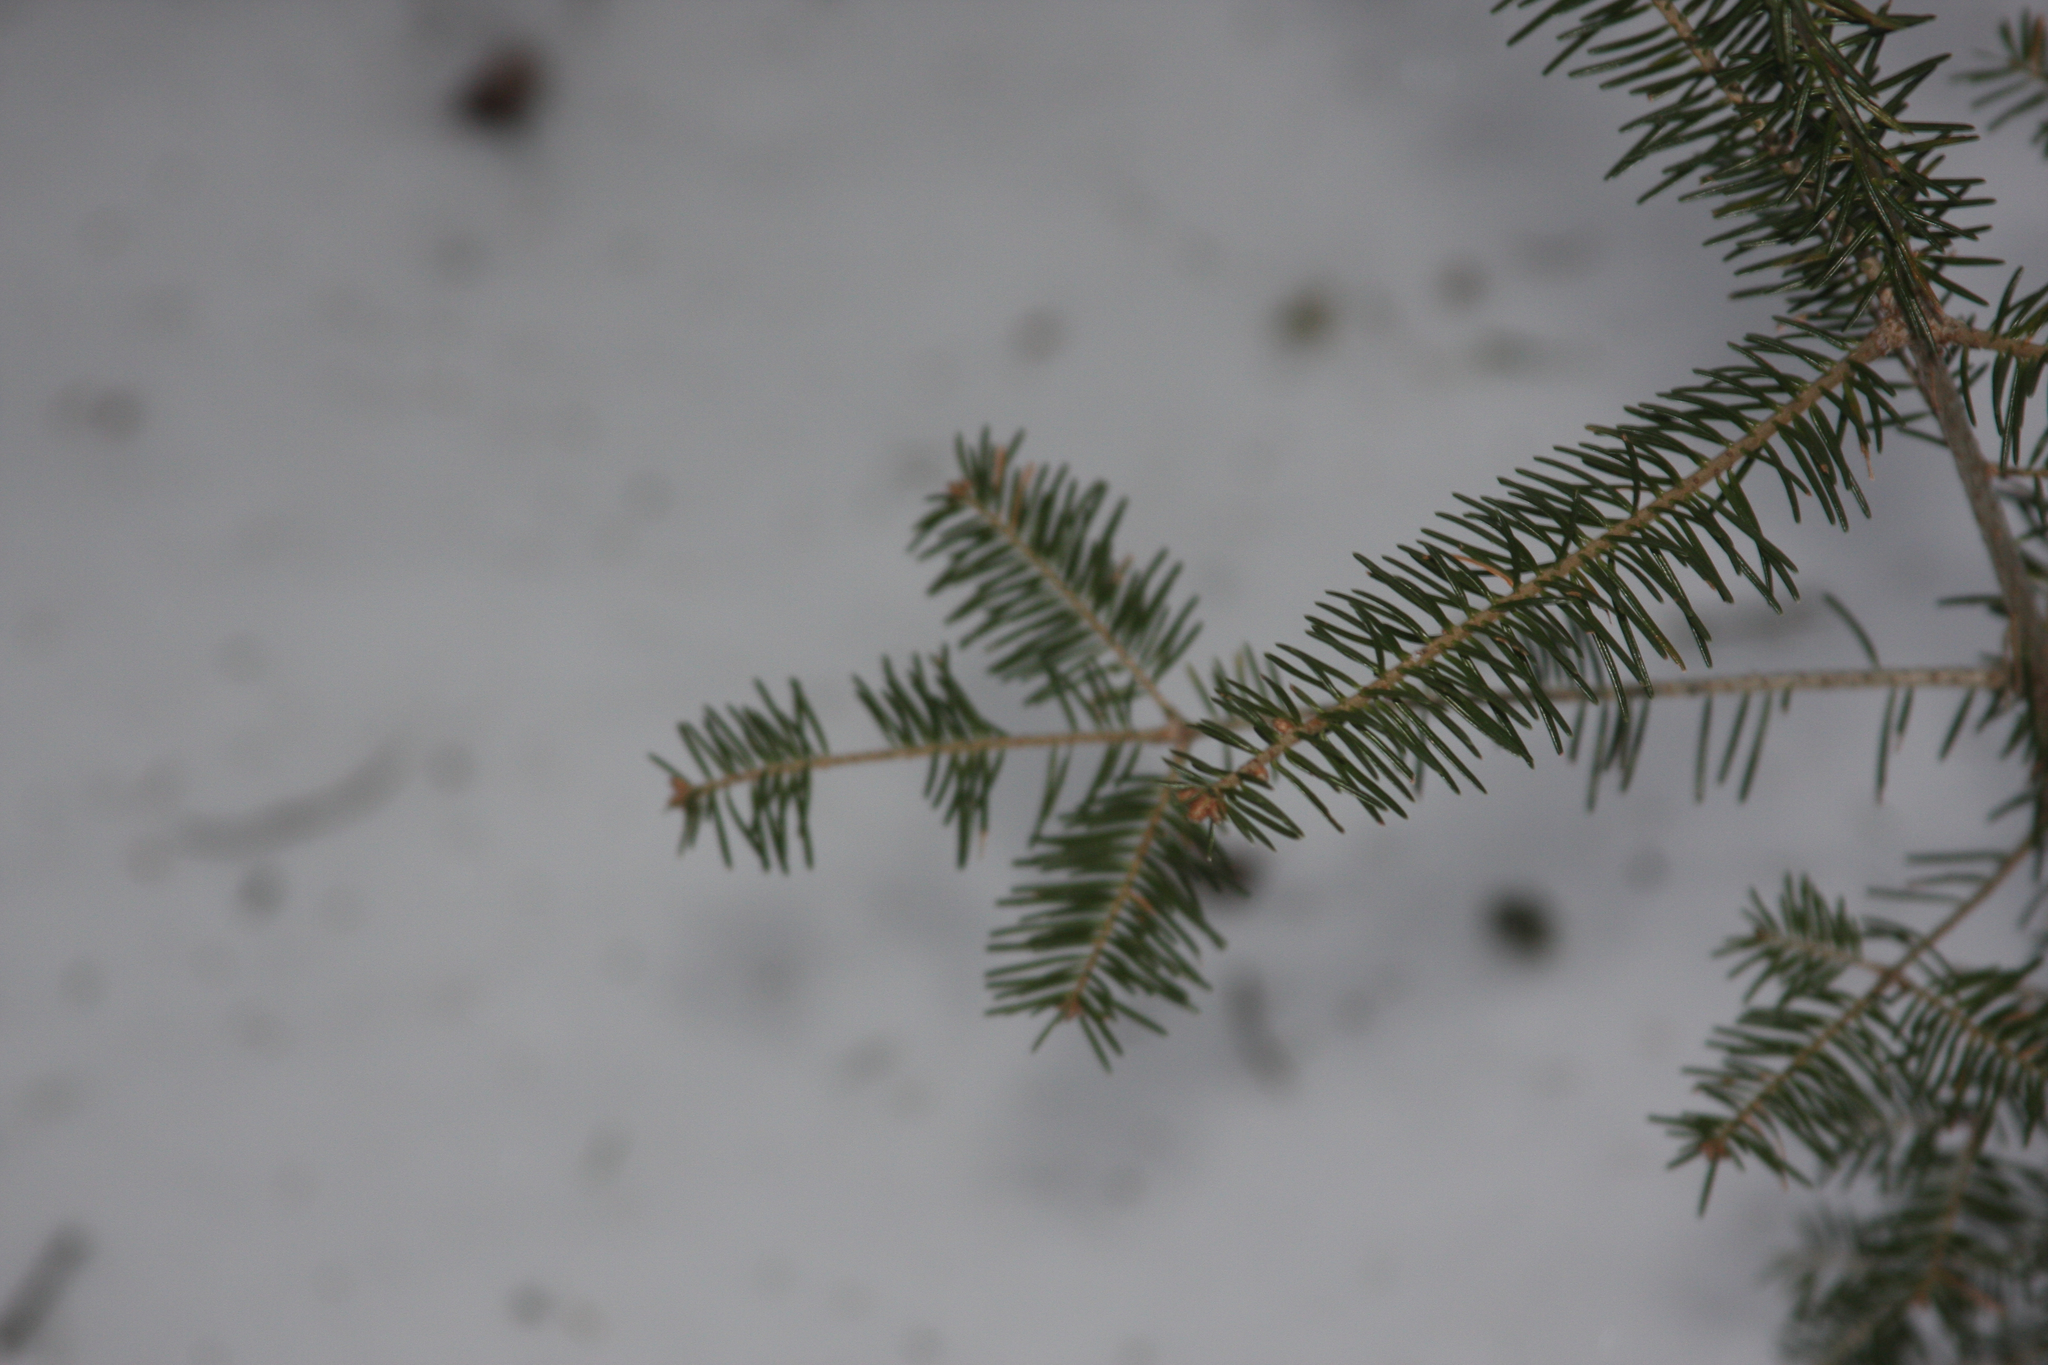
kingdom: Plantae
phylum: Tracheophyta
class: Pinopsida
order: Pinales
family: Pinaceae
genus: Abies
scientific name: Abies balsamea
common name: Balsam fir
